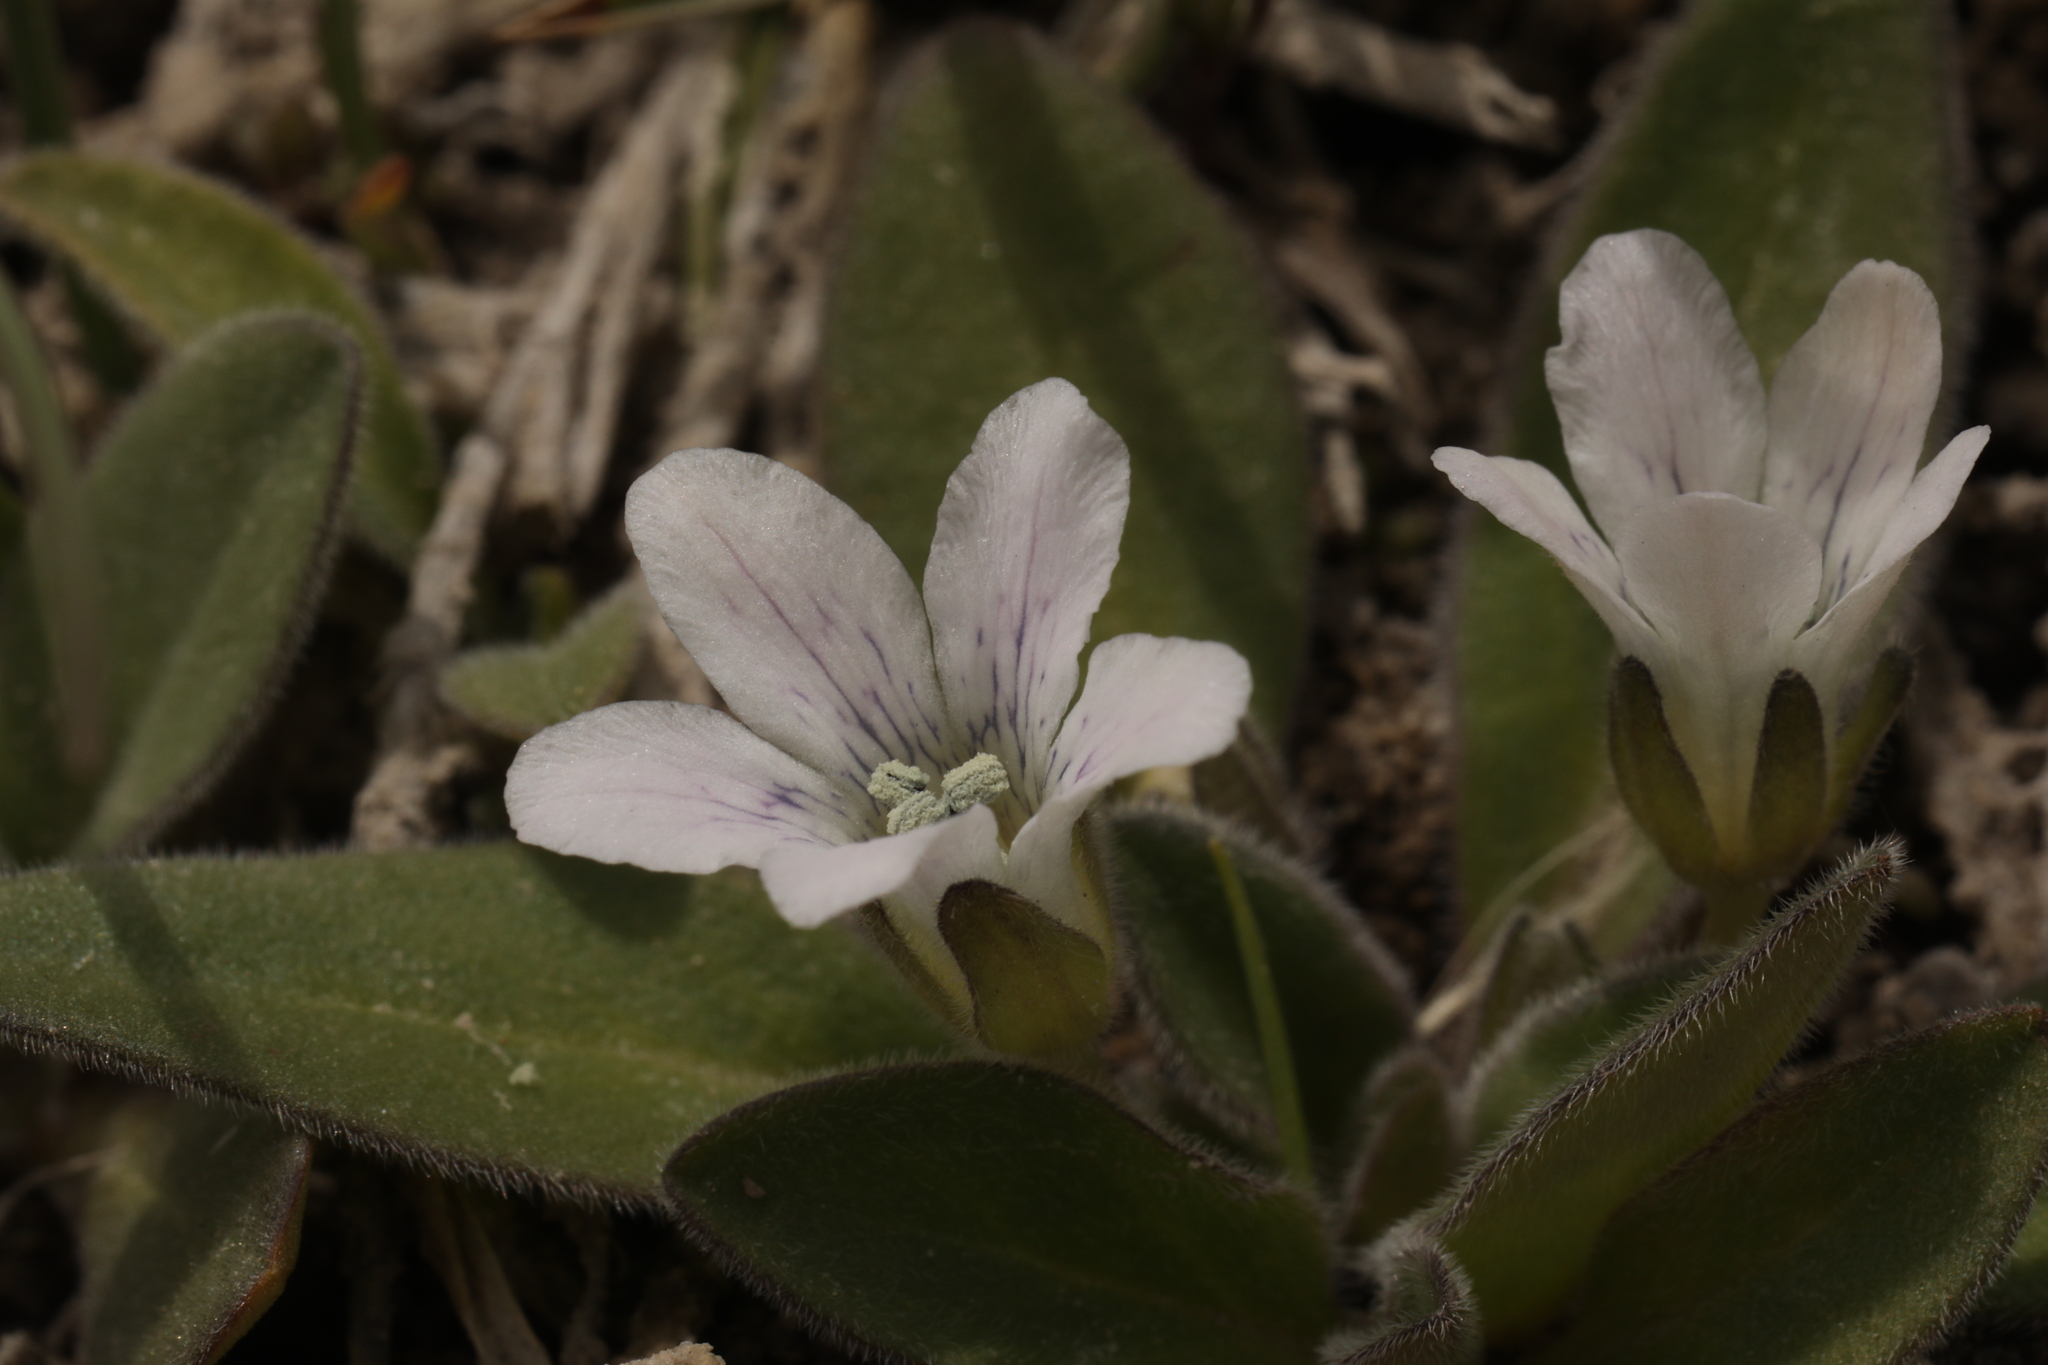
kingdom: Plantae
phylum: Tracheophyta
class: Magnoliopsida
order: Boraginales
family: Hydrophyllaceae
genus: Hesperochiron
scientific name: Hesperochiron californicus
